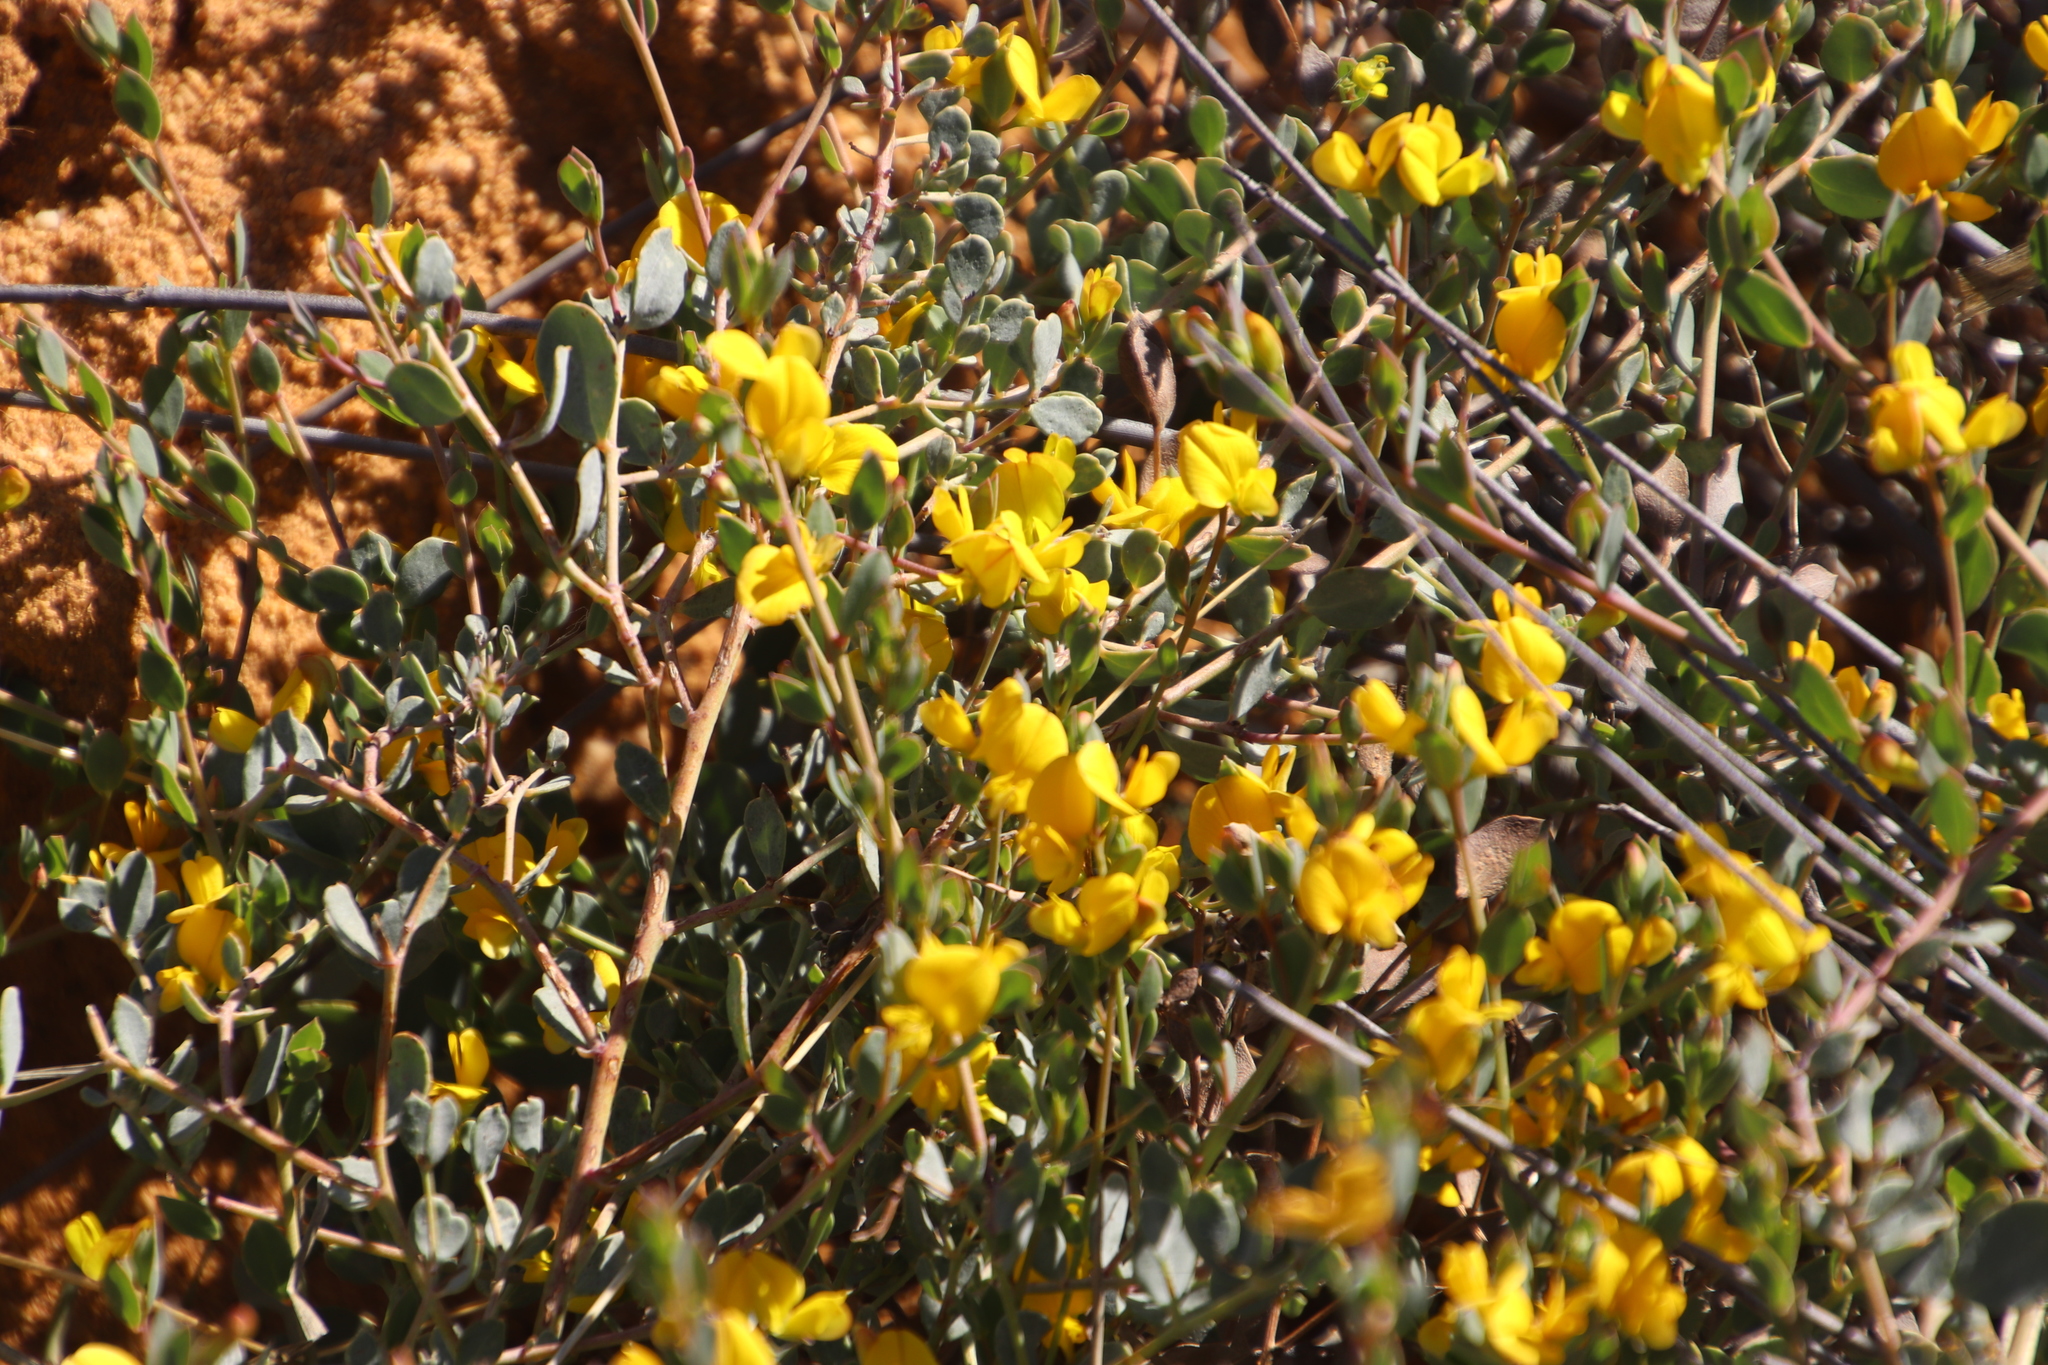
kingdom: Plantae
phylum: Tracheophyta
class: Magnoliopsida
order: Fabales
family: Fabaceae
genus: Rafnia
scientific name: Rafnia diffusa
